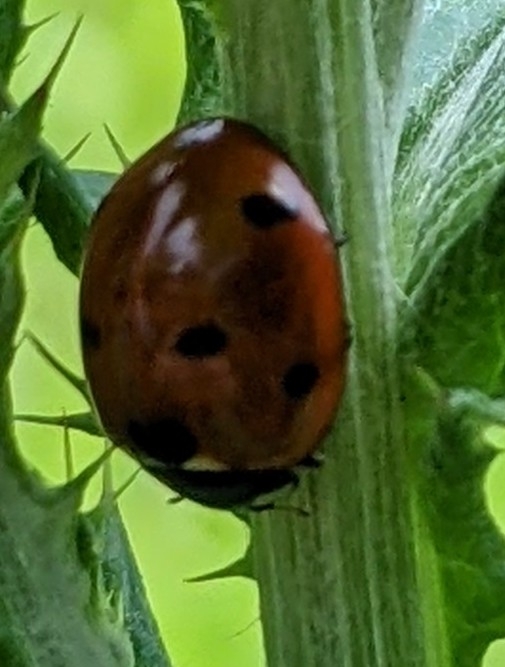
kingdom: Animalia
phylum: Arthropoda
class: Insecta
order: Coleoptera
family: Coccinellidae
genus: Coccinella
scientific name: Coccinella septempunctata
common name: Sevenspotted lady beetle
